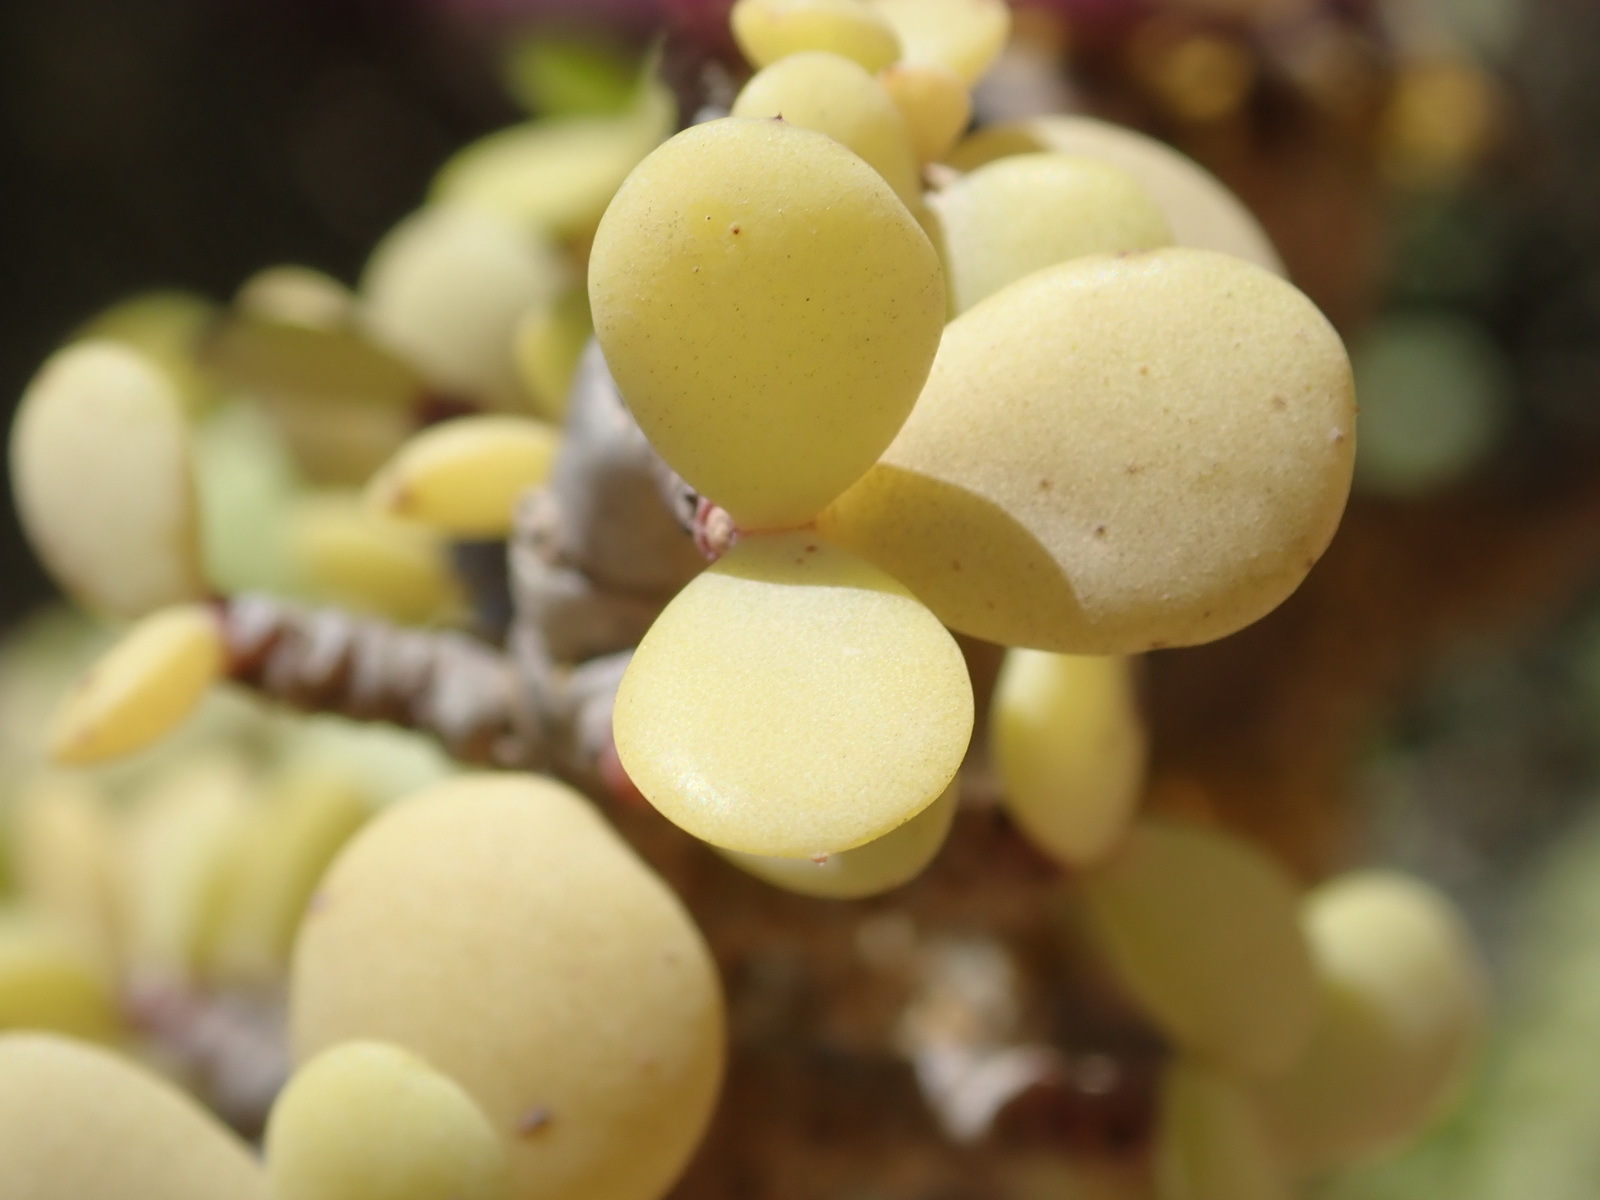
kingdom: Plantae
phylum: Tracheophyta
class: Magnoliopsida
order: Caryophyllales
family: Didiereaceae
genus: Portulacaria
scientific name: Portulacaria afra
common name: Elephant-bush
